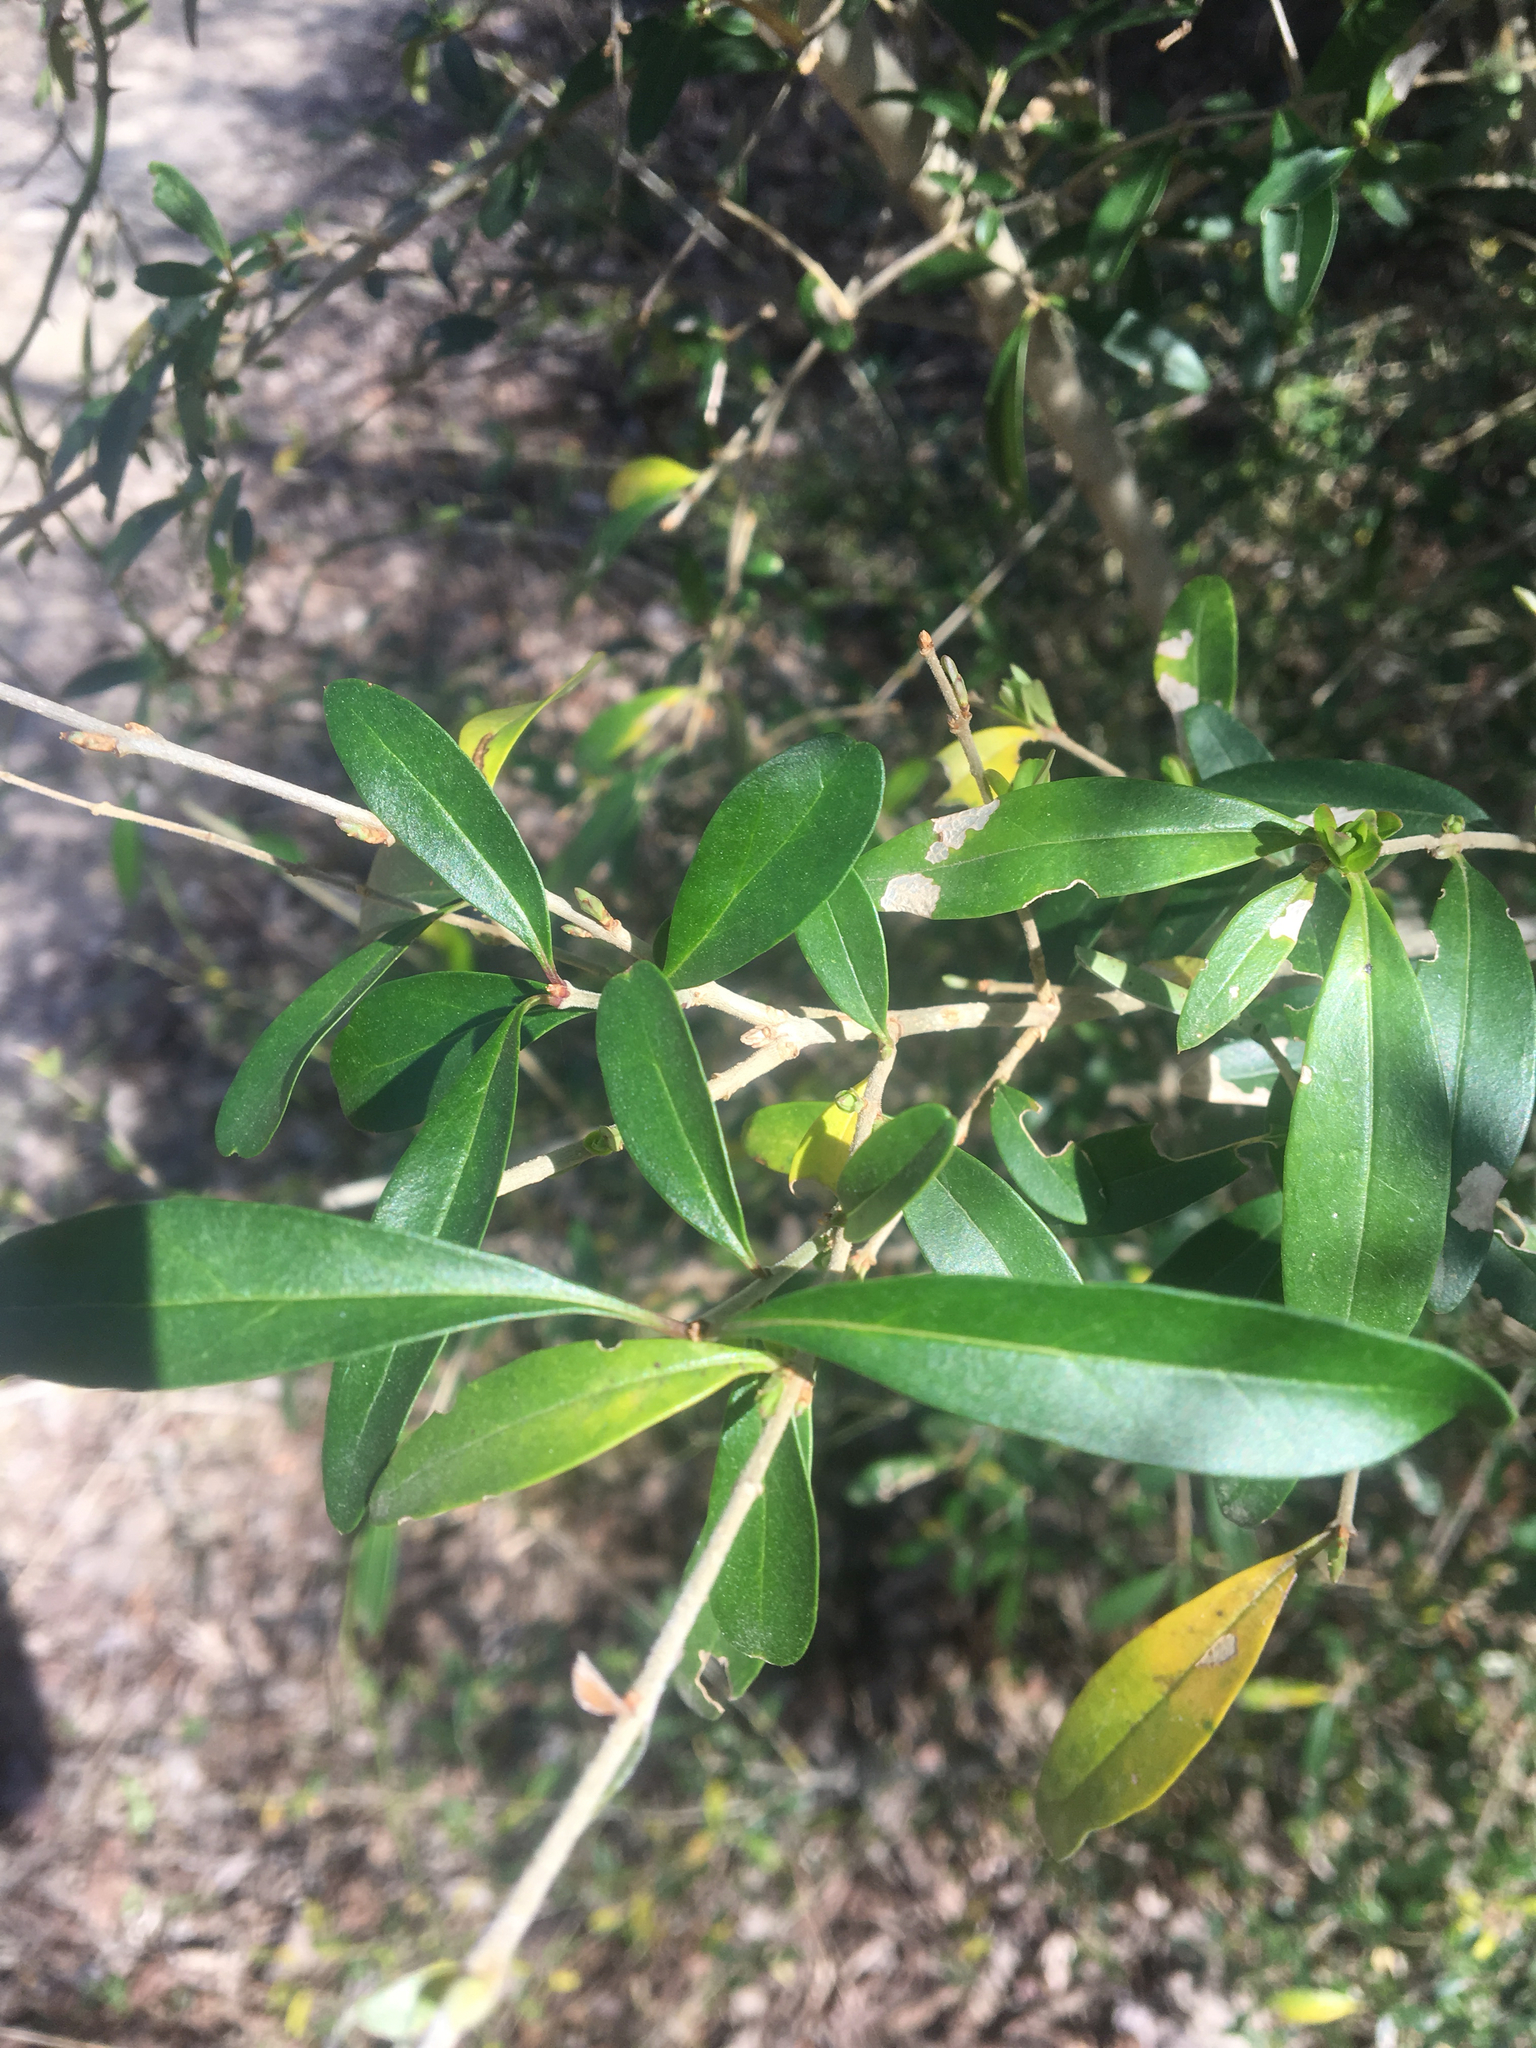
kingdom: Plantae
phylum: Tracheophyta
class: Magnoliopsida
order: Lamiales
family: Oleaceae
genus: Ligustrum
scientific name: Ligustrum quihoui
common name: Waxyleaf privet
